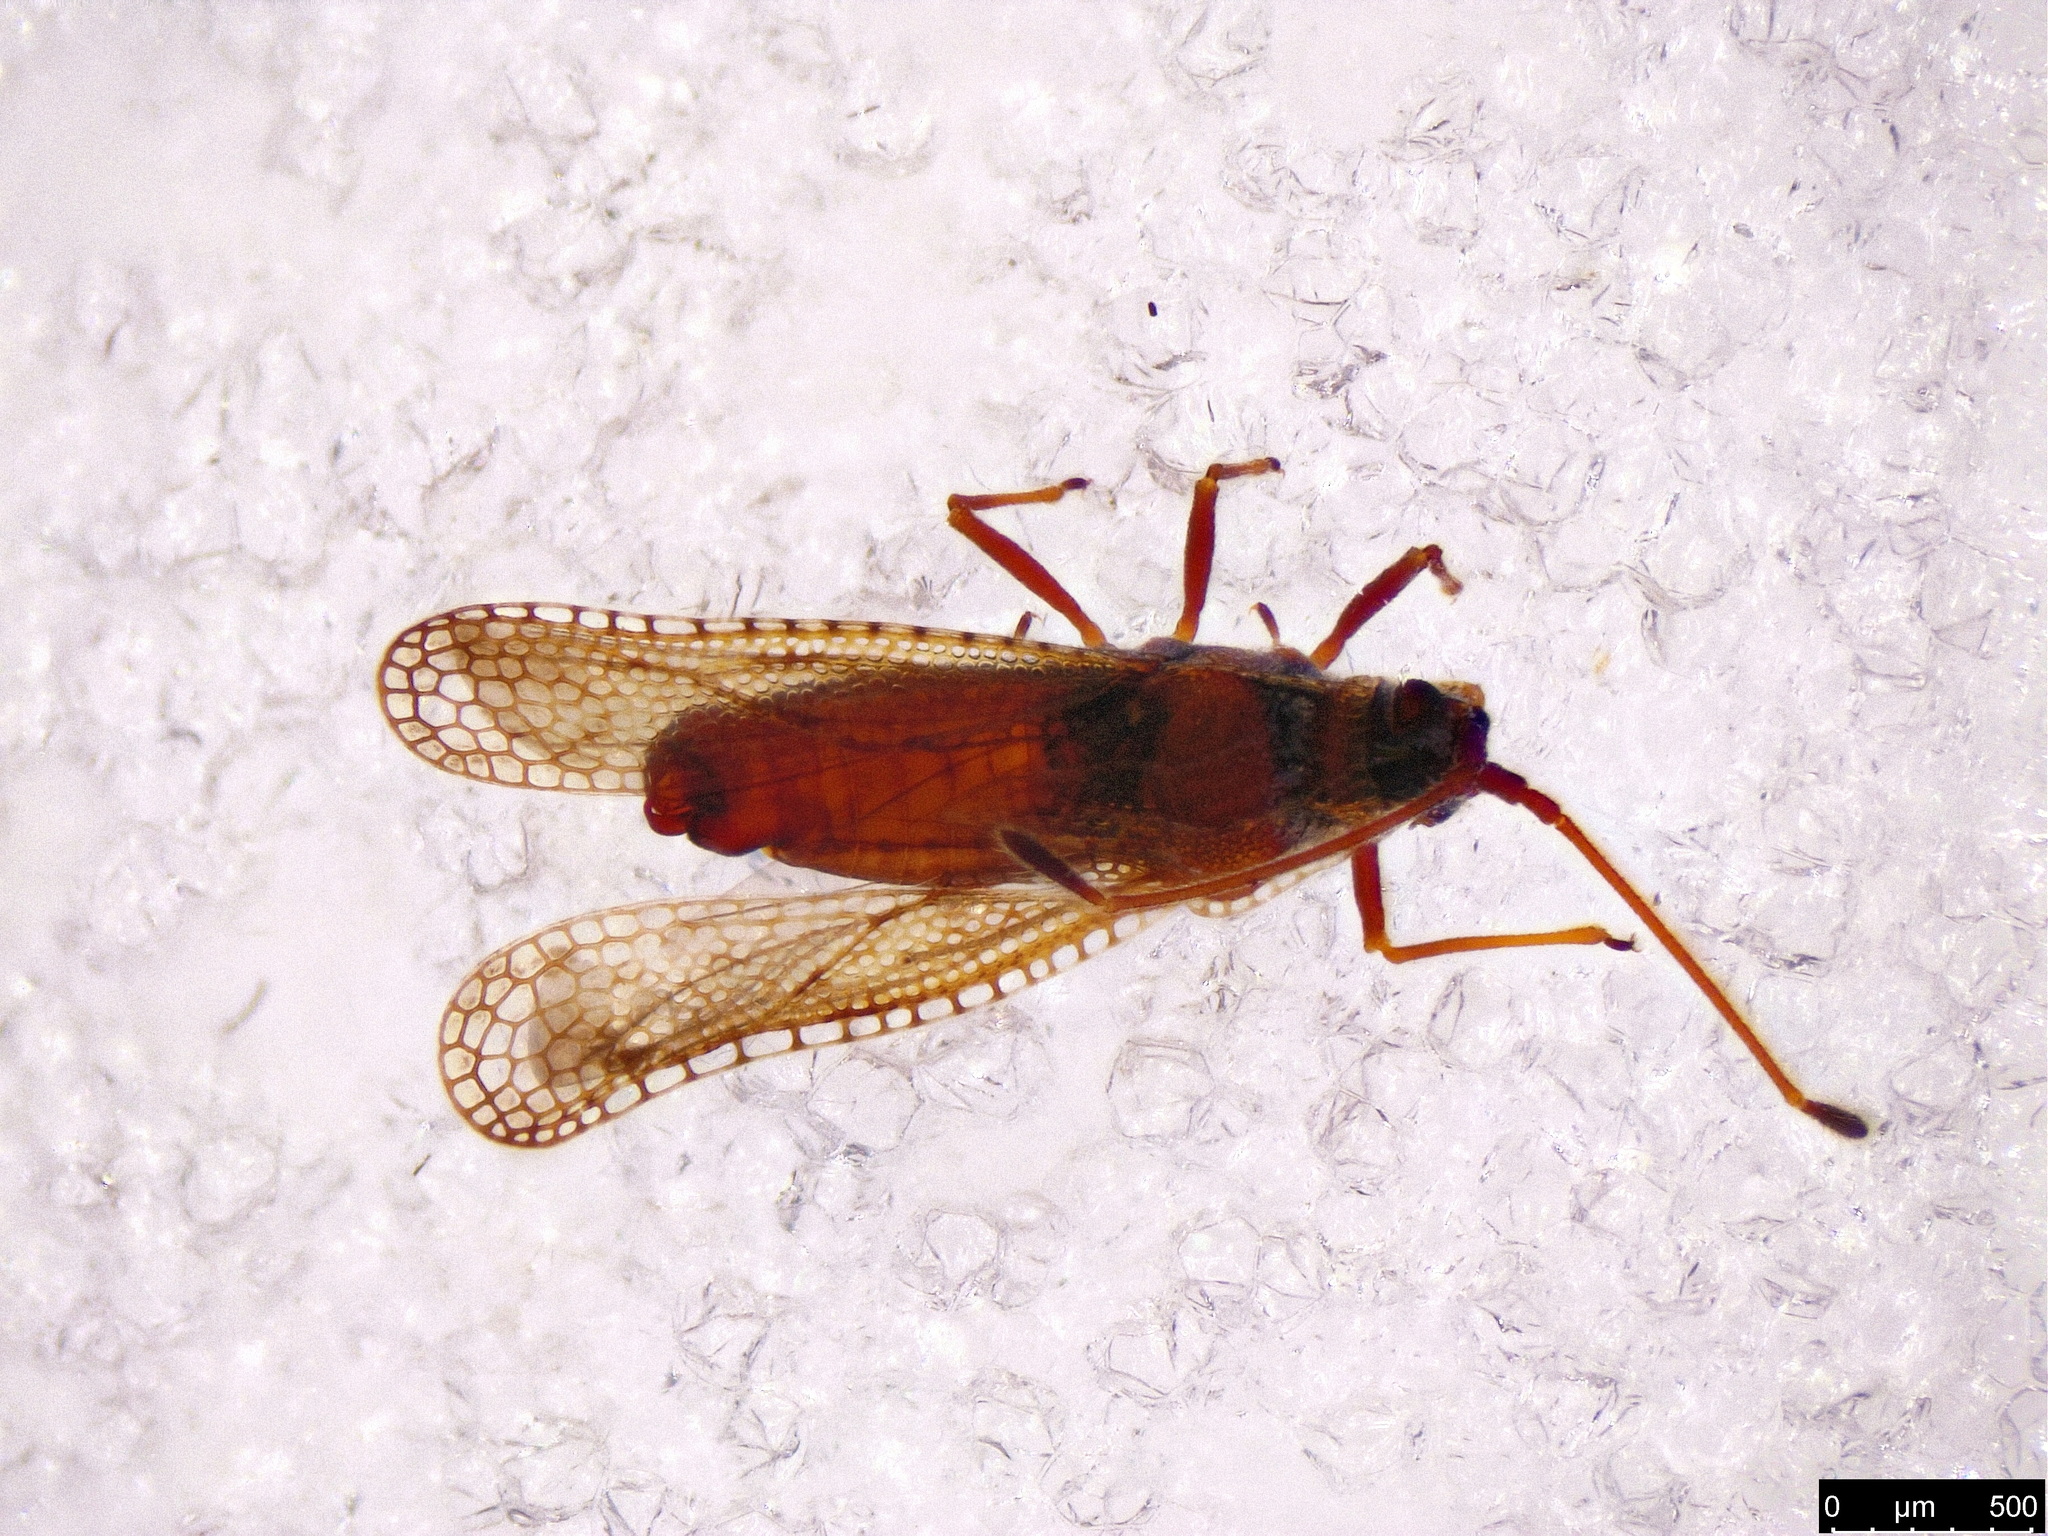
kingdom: Animalia
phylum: Arthropoda
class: Insecta
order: Hemiptera
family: Tingidae
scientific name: Tingidae
